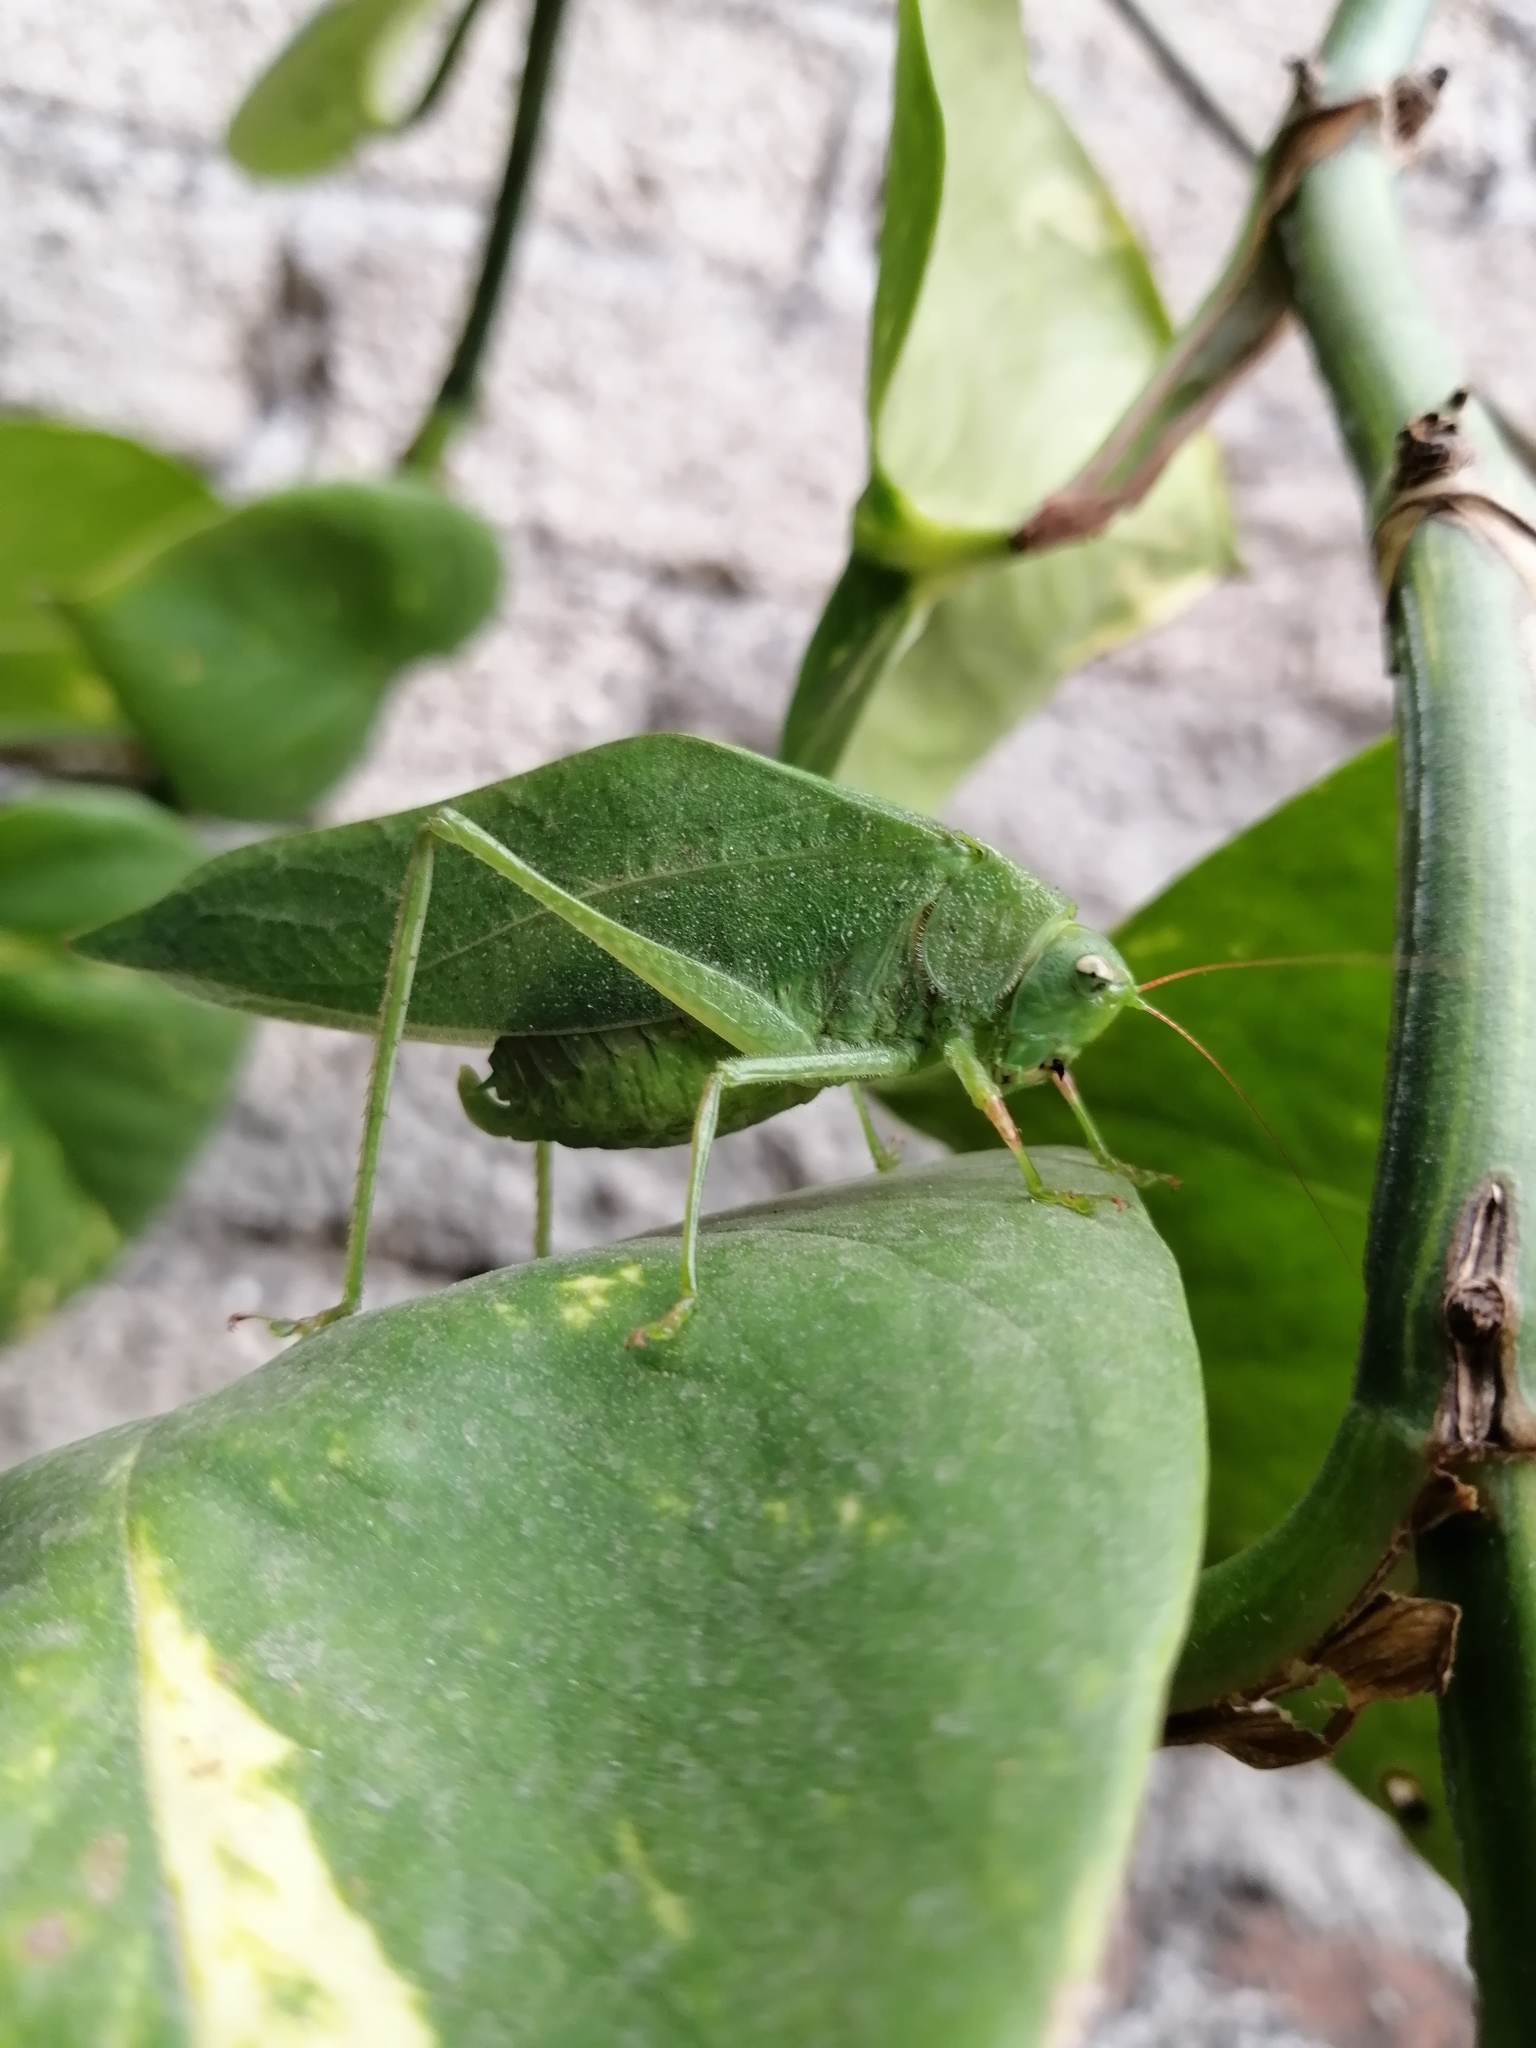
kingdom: Animalia
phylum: Arthropoda
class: Insecta
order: Orthoptera
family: Tettigoniidae
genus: Syntechna
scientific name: Syntechna tarasca
